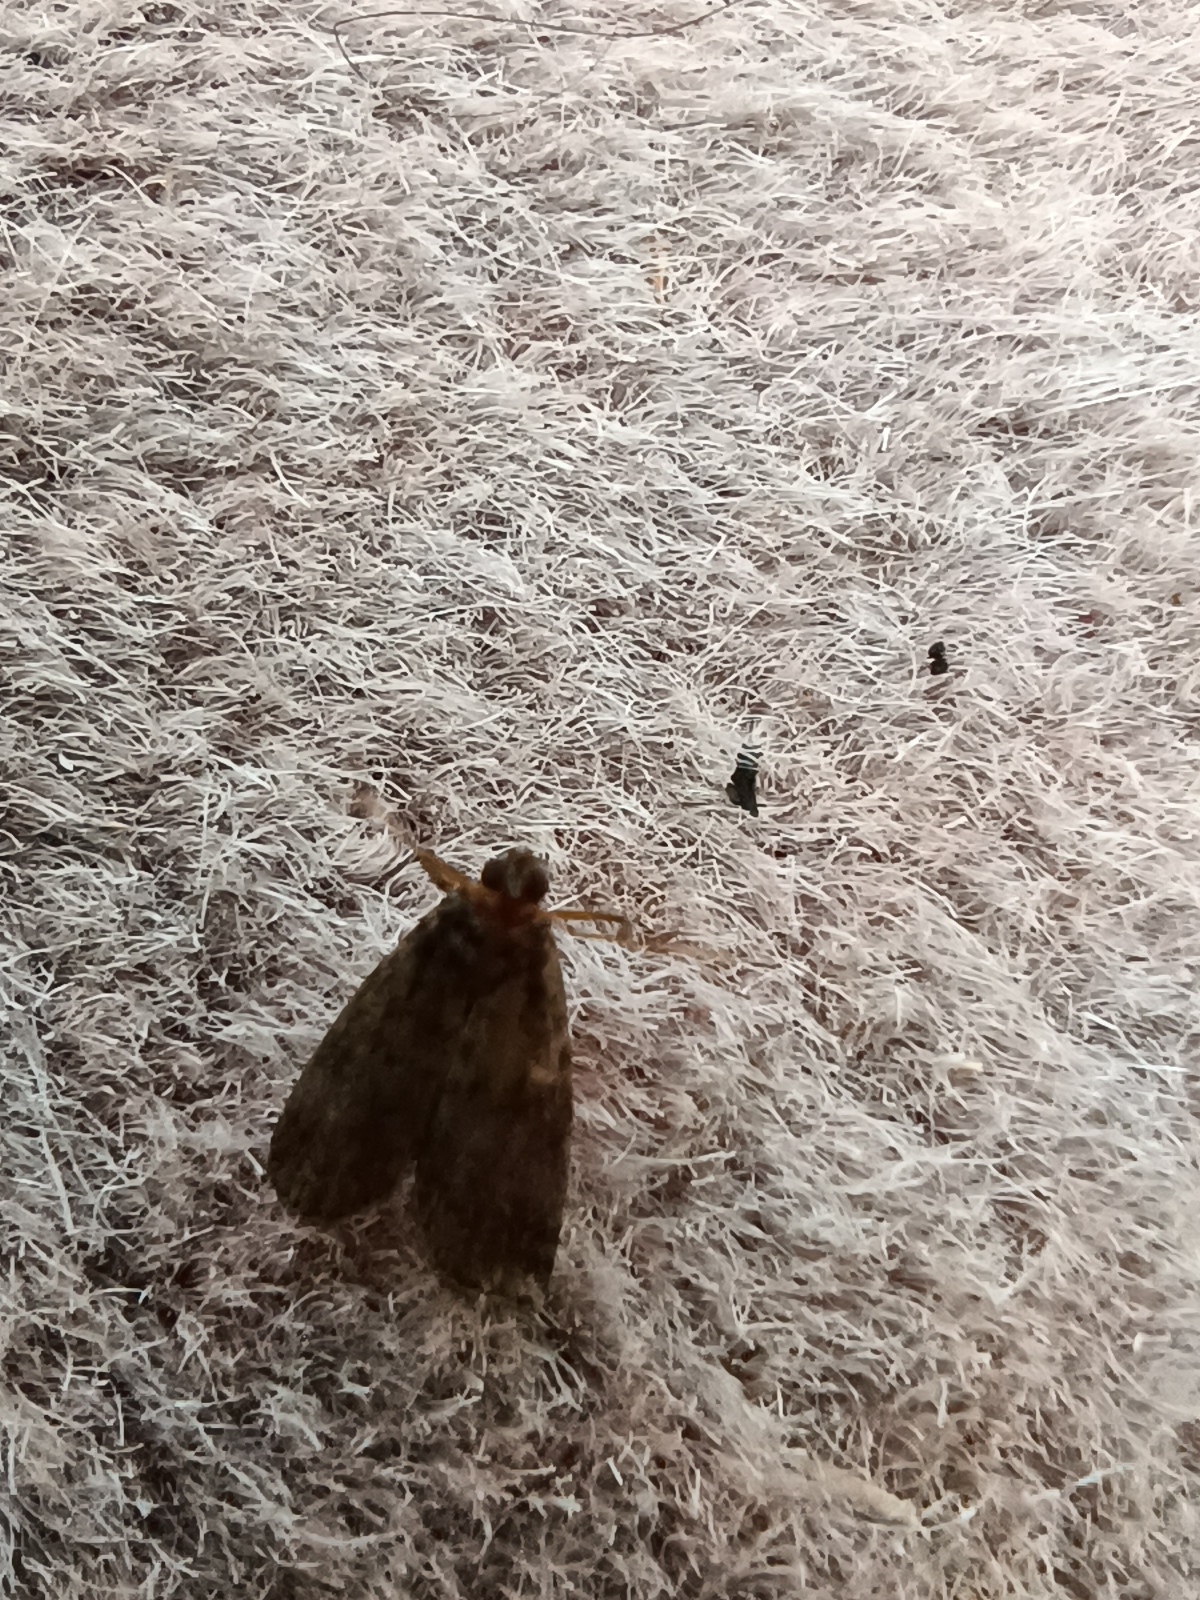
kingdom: Animalia
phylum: Arthropoda
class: Insecta
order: Lepidoptera
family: Pyralidae
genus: Acrobasis
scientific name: Acrobasis advenella
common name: Grey knot-horn
